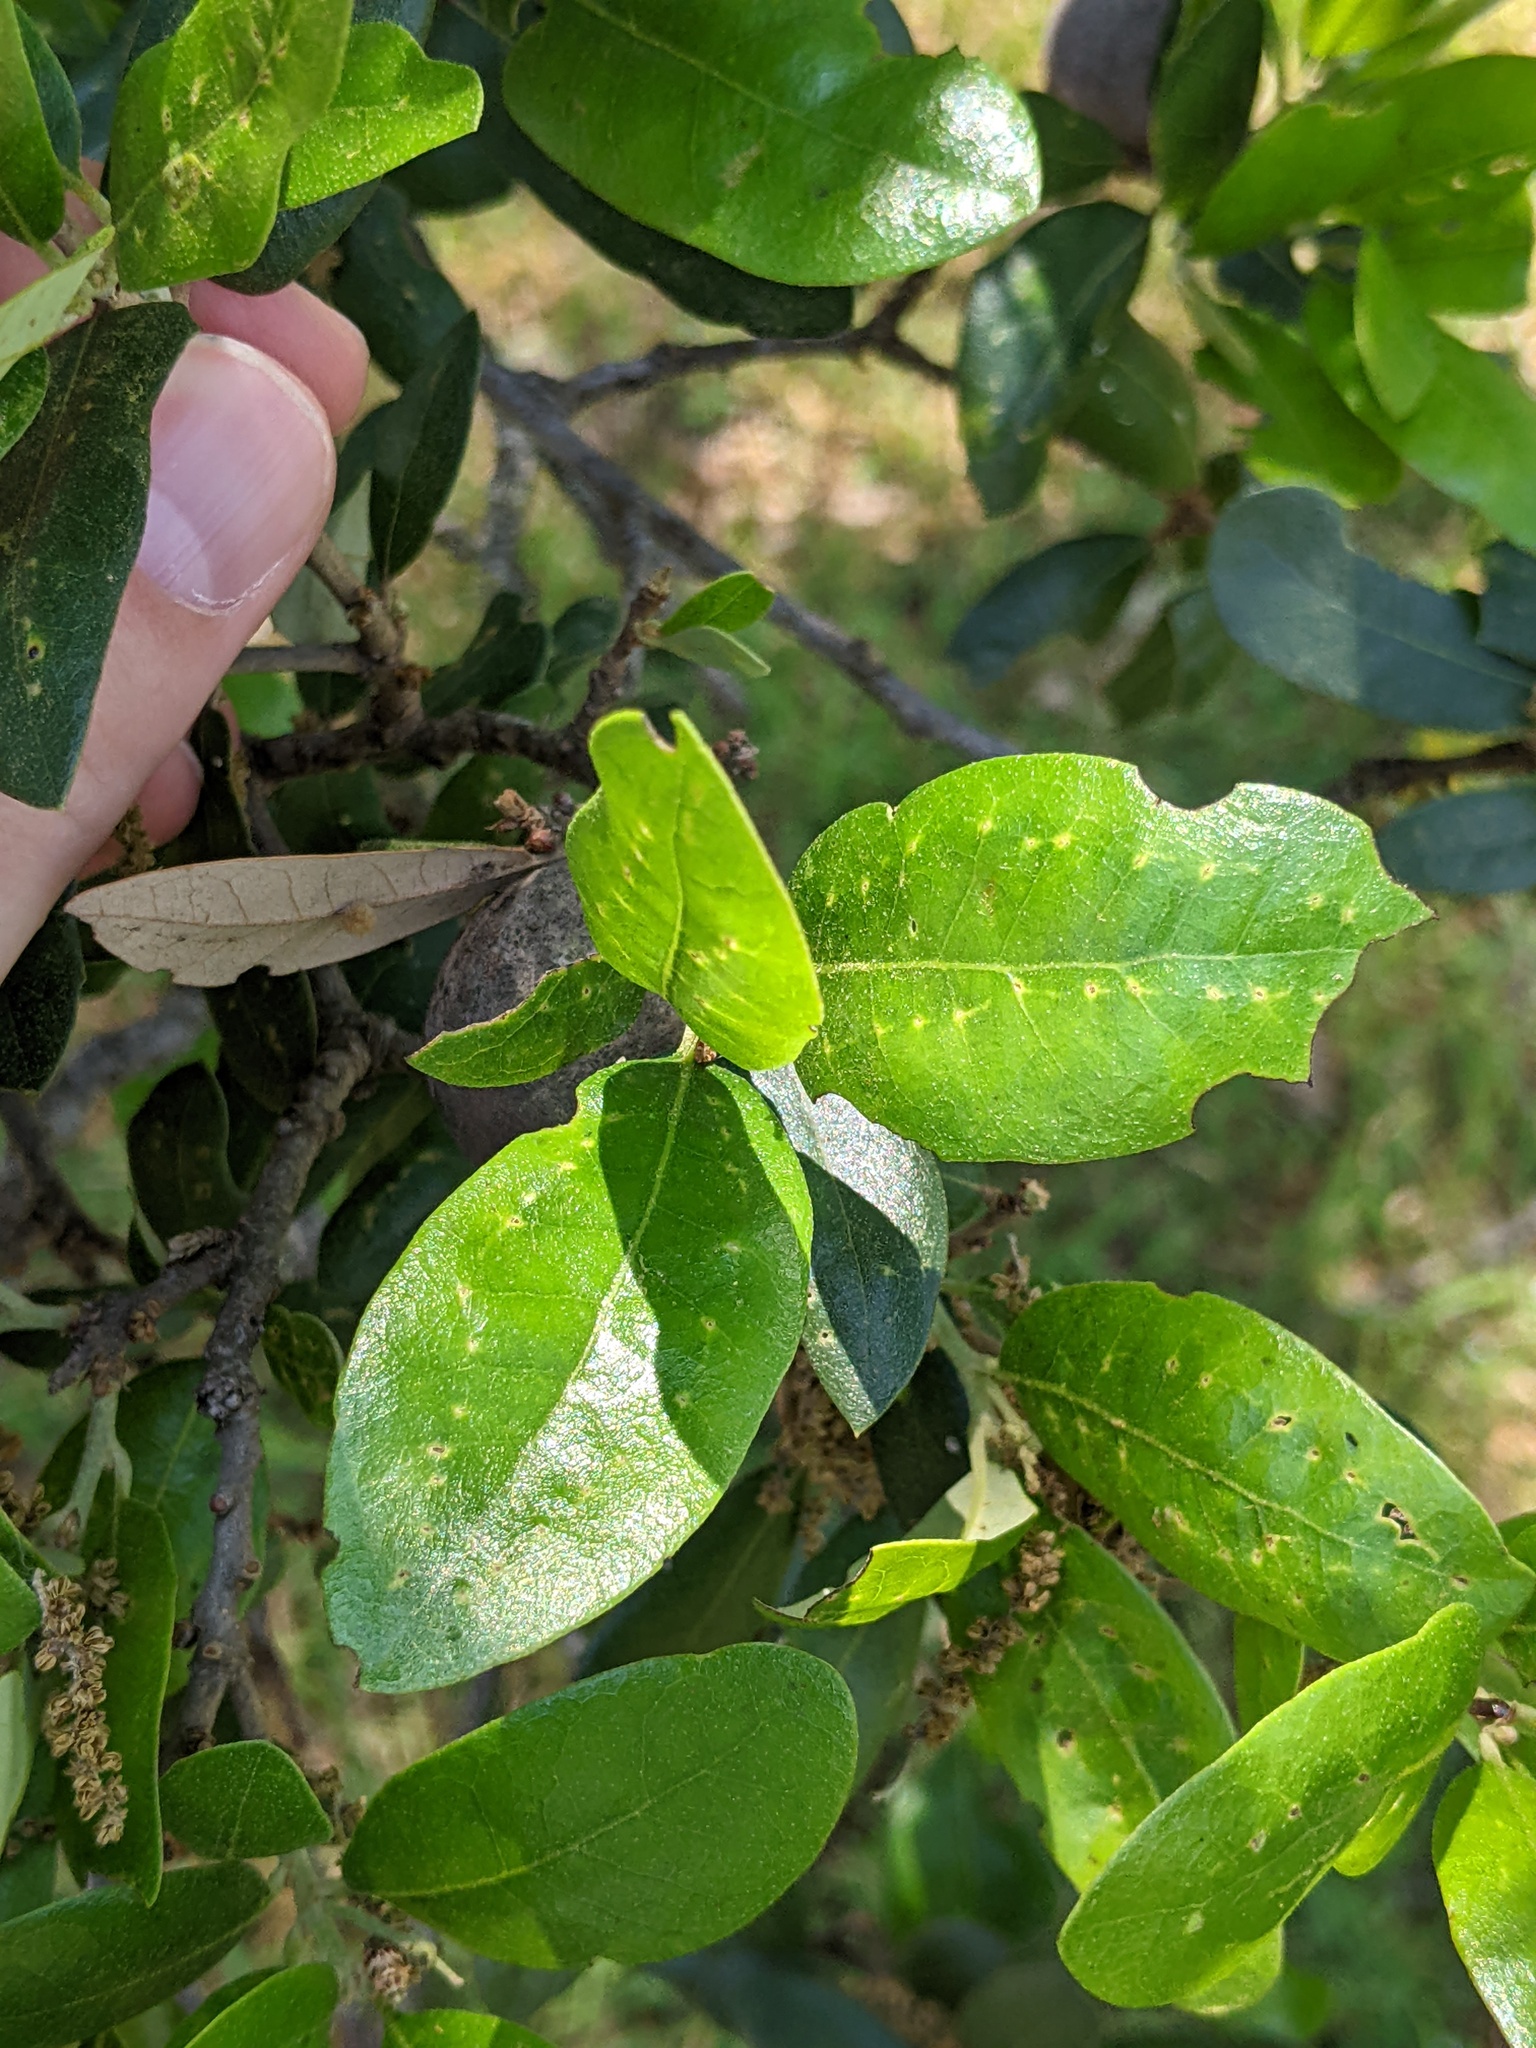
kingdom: Animalia
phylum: Arthropoda
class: Insecta
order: Hymenoptera
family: Cynipidae
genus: Belonocnema
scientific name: Belonocnema kinseyi
